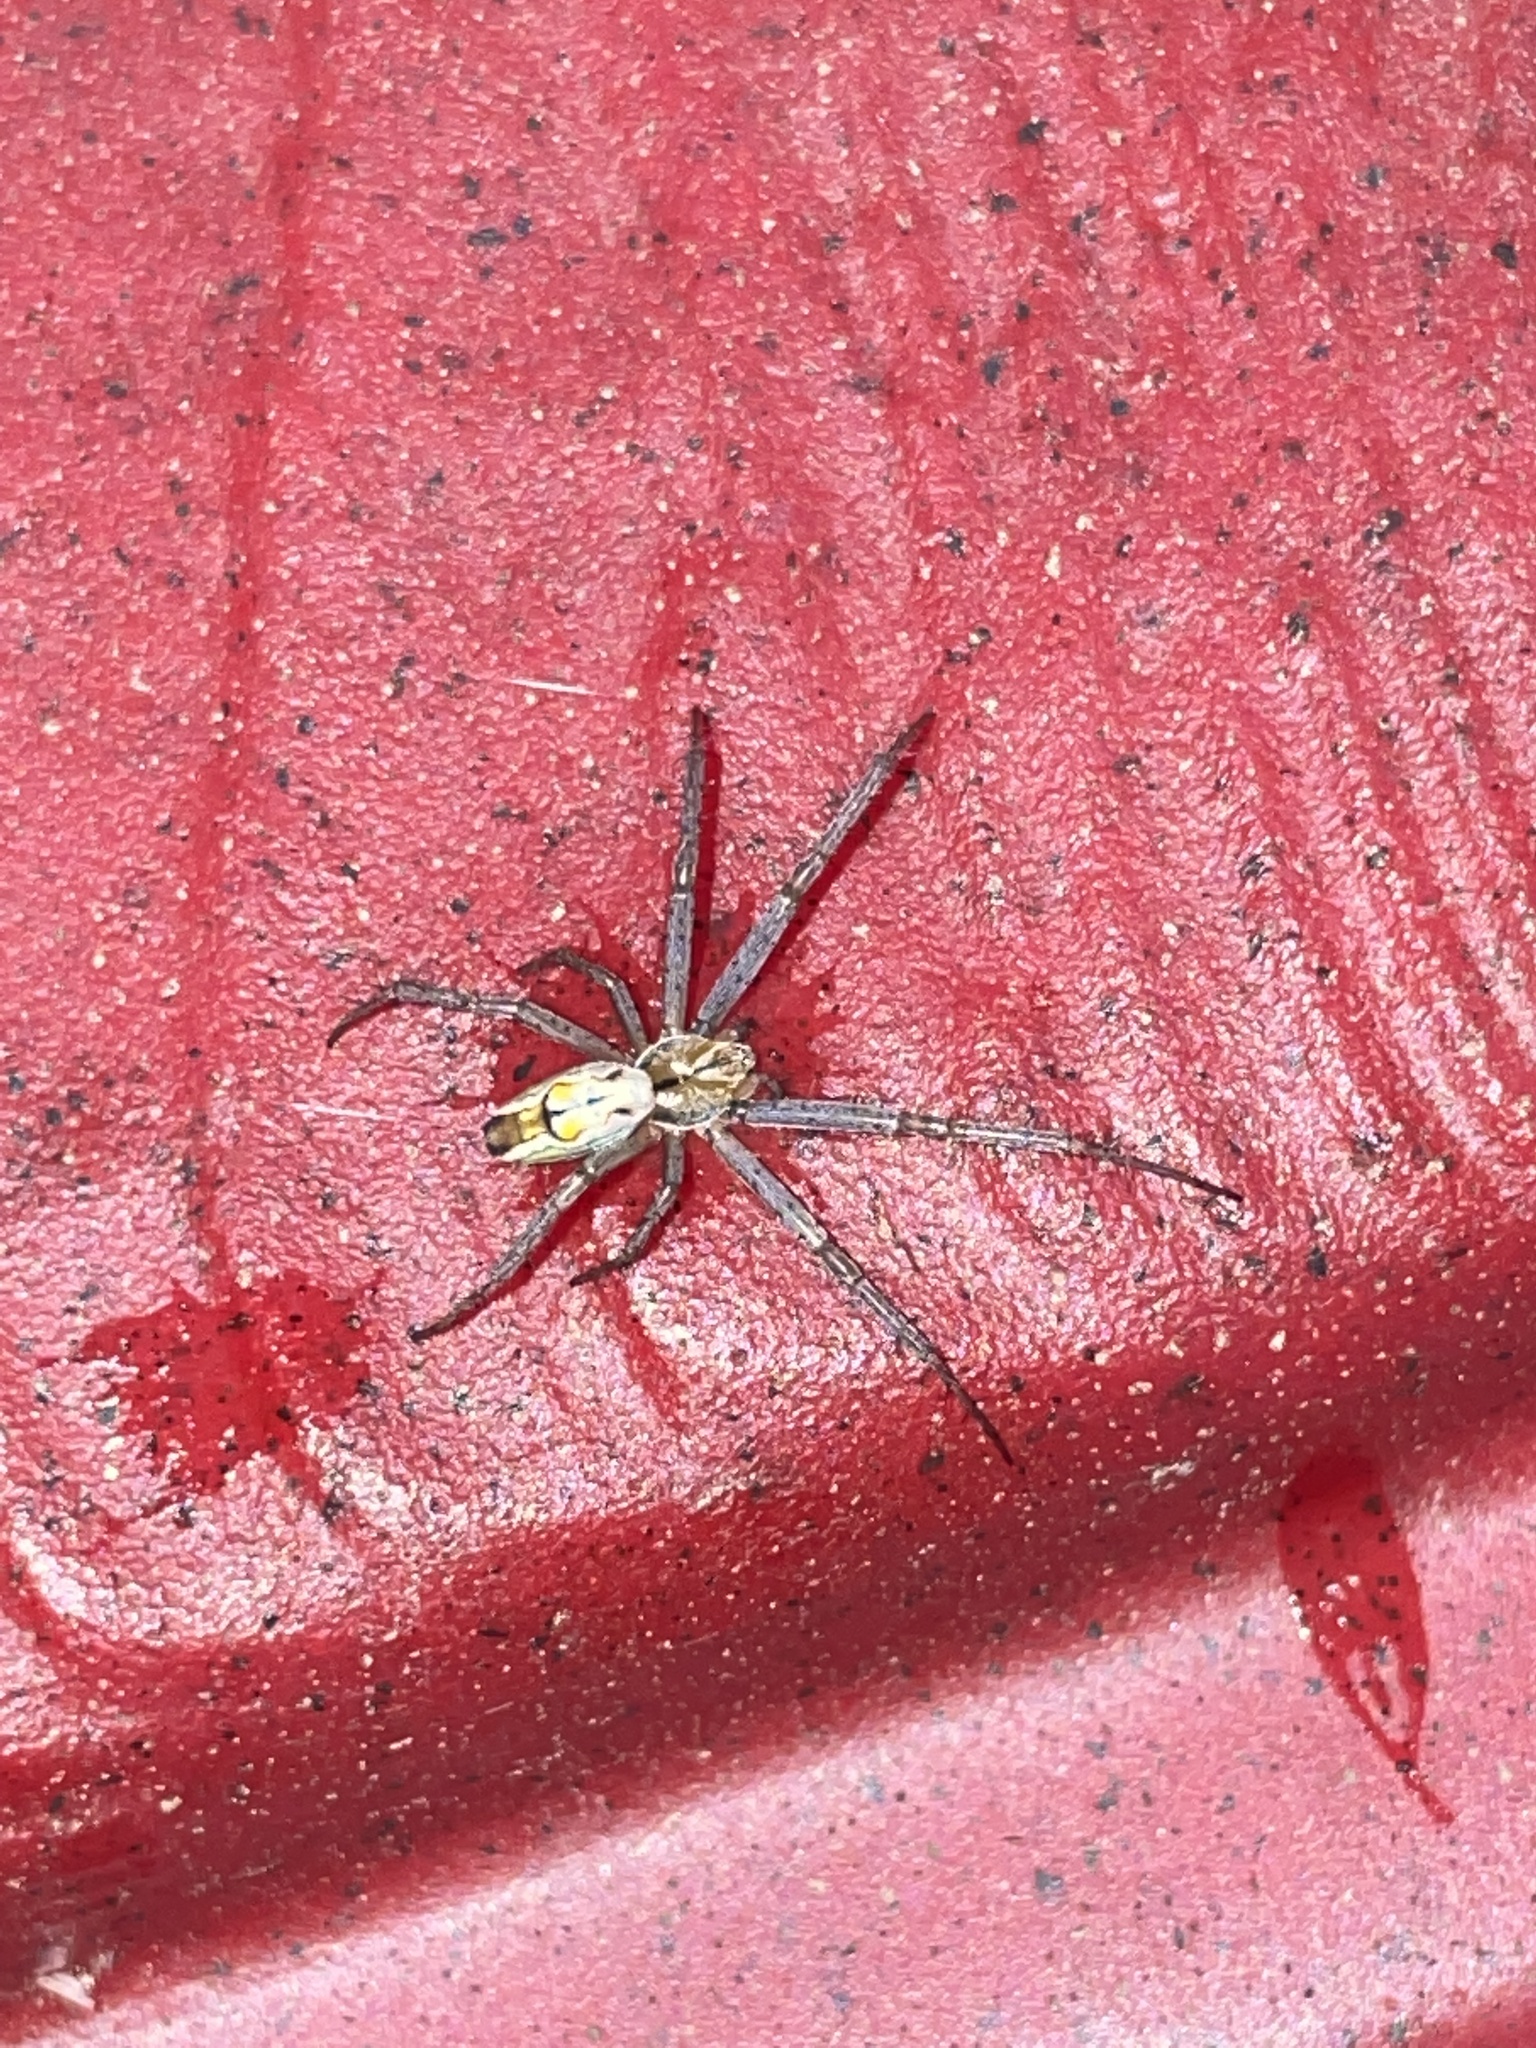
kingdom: Animalia
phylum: Arthropoda
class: Arachnida
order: Araneae
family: Araneidae
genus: Mecynogea
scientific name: Mecynogea lemniscata
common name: Orb weavers
